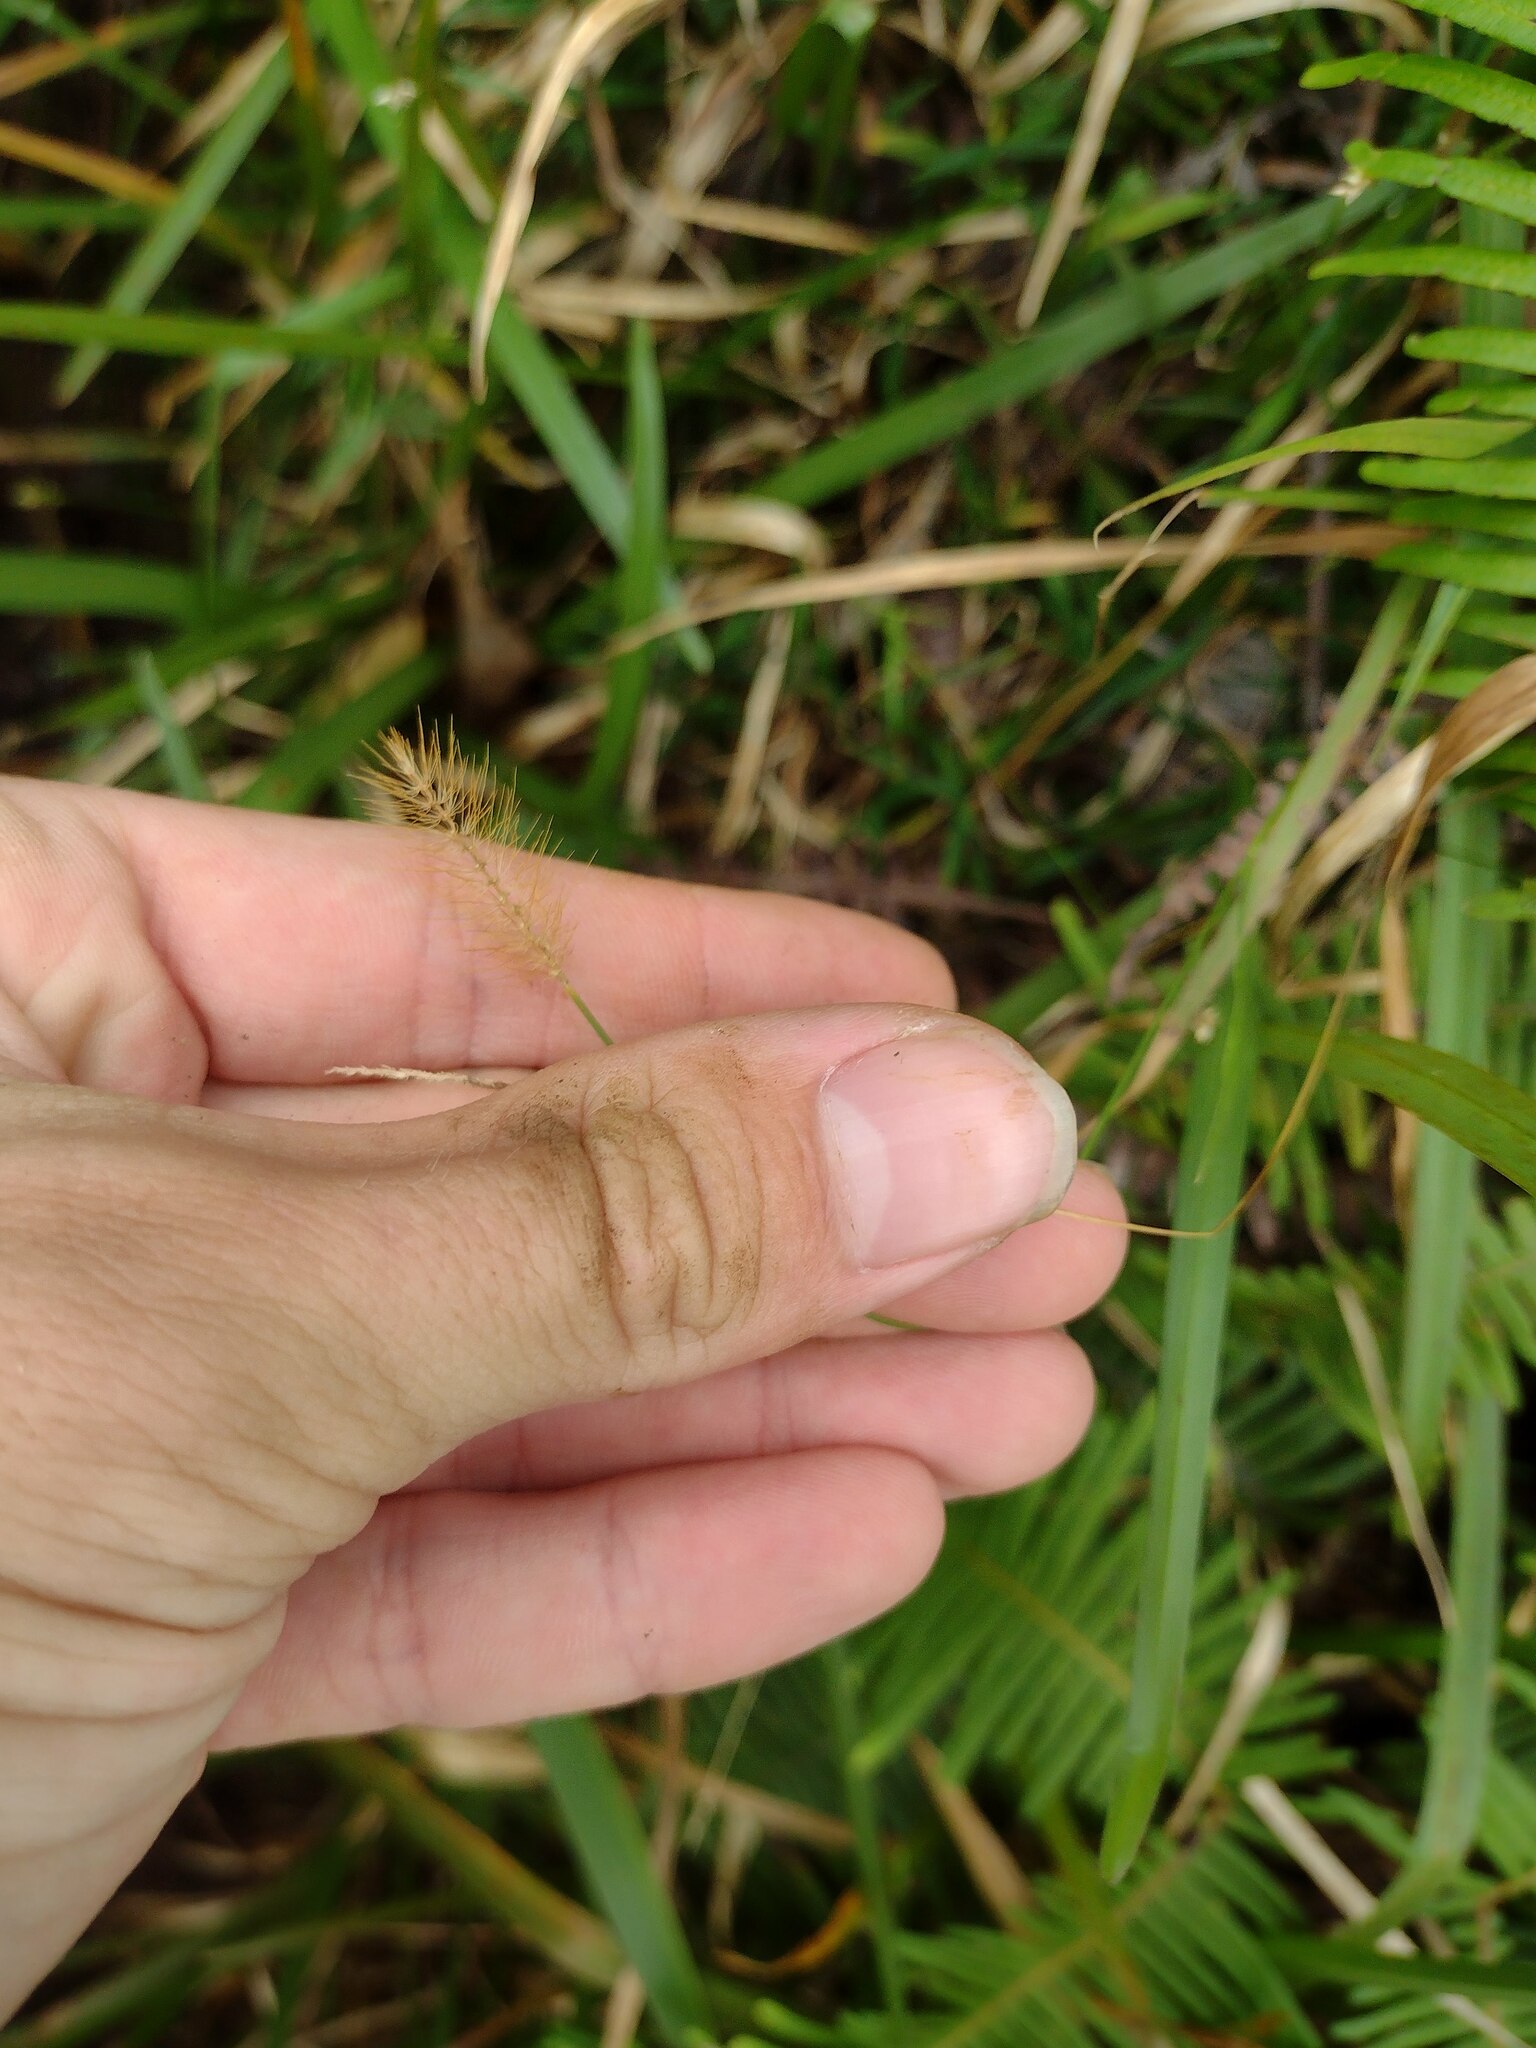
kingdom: Plantae
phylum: Tracheophyta
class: Liliopsida
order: Poales
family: Poaceae
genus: Setaria
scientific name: Setaria parviflora
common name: Knotroot bristle-grass
